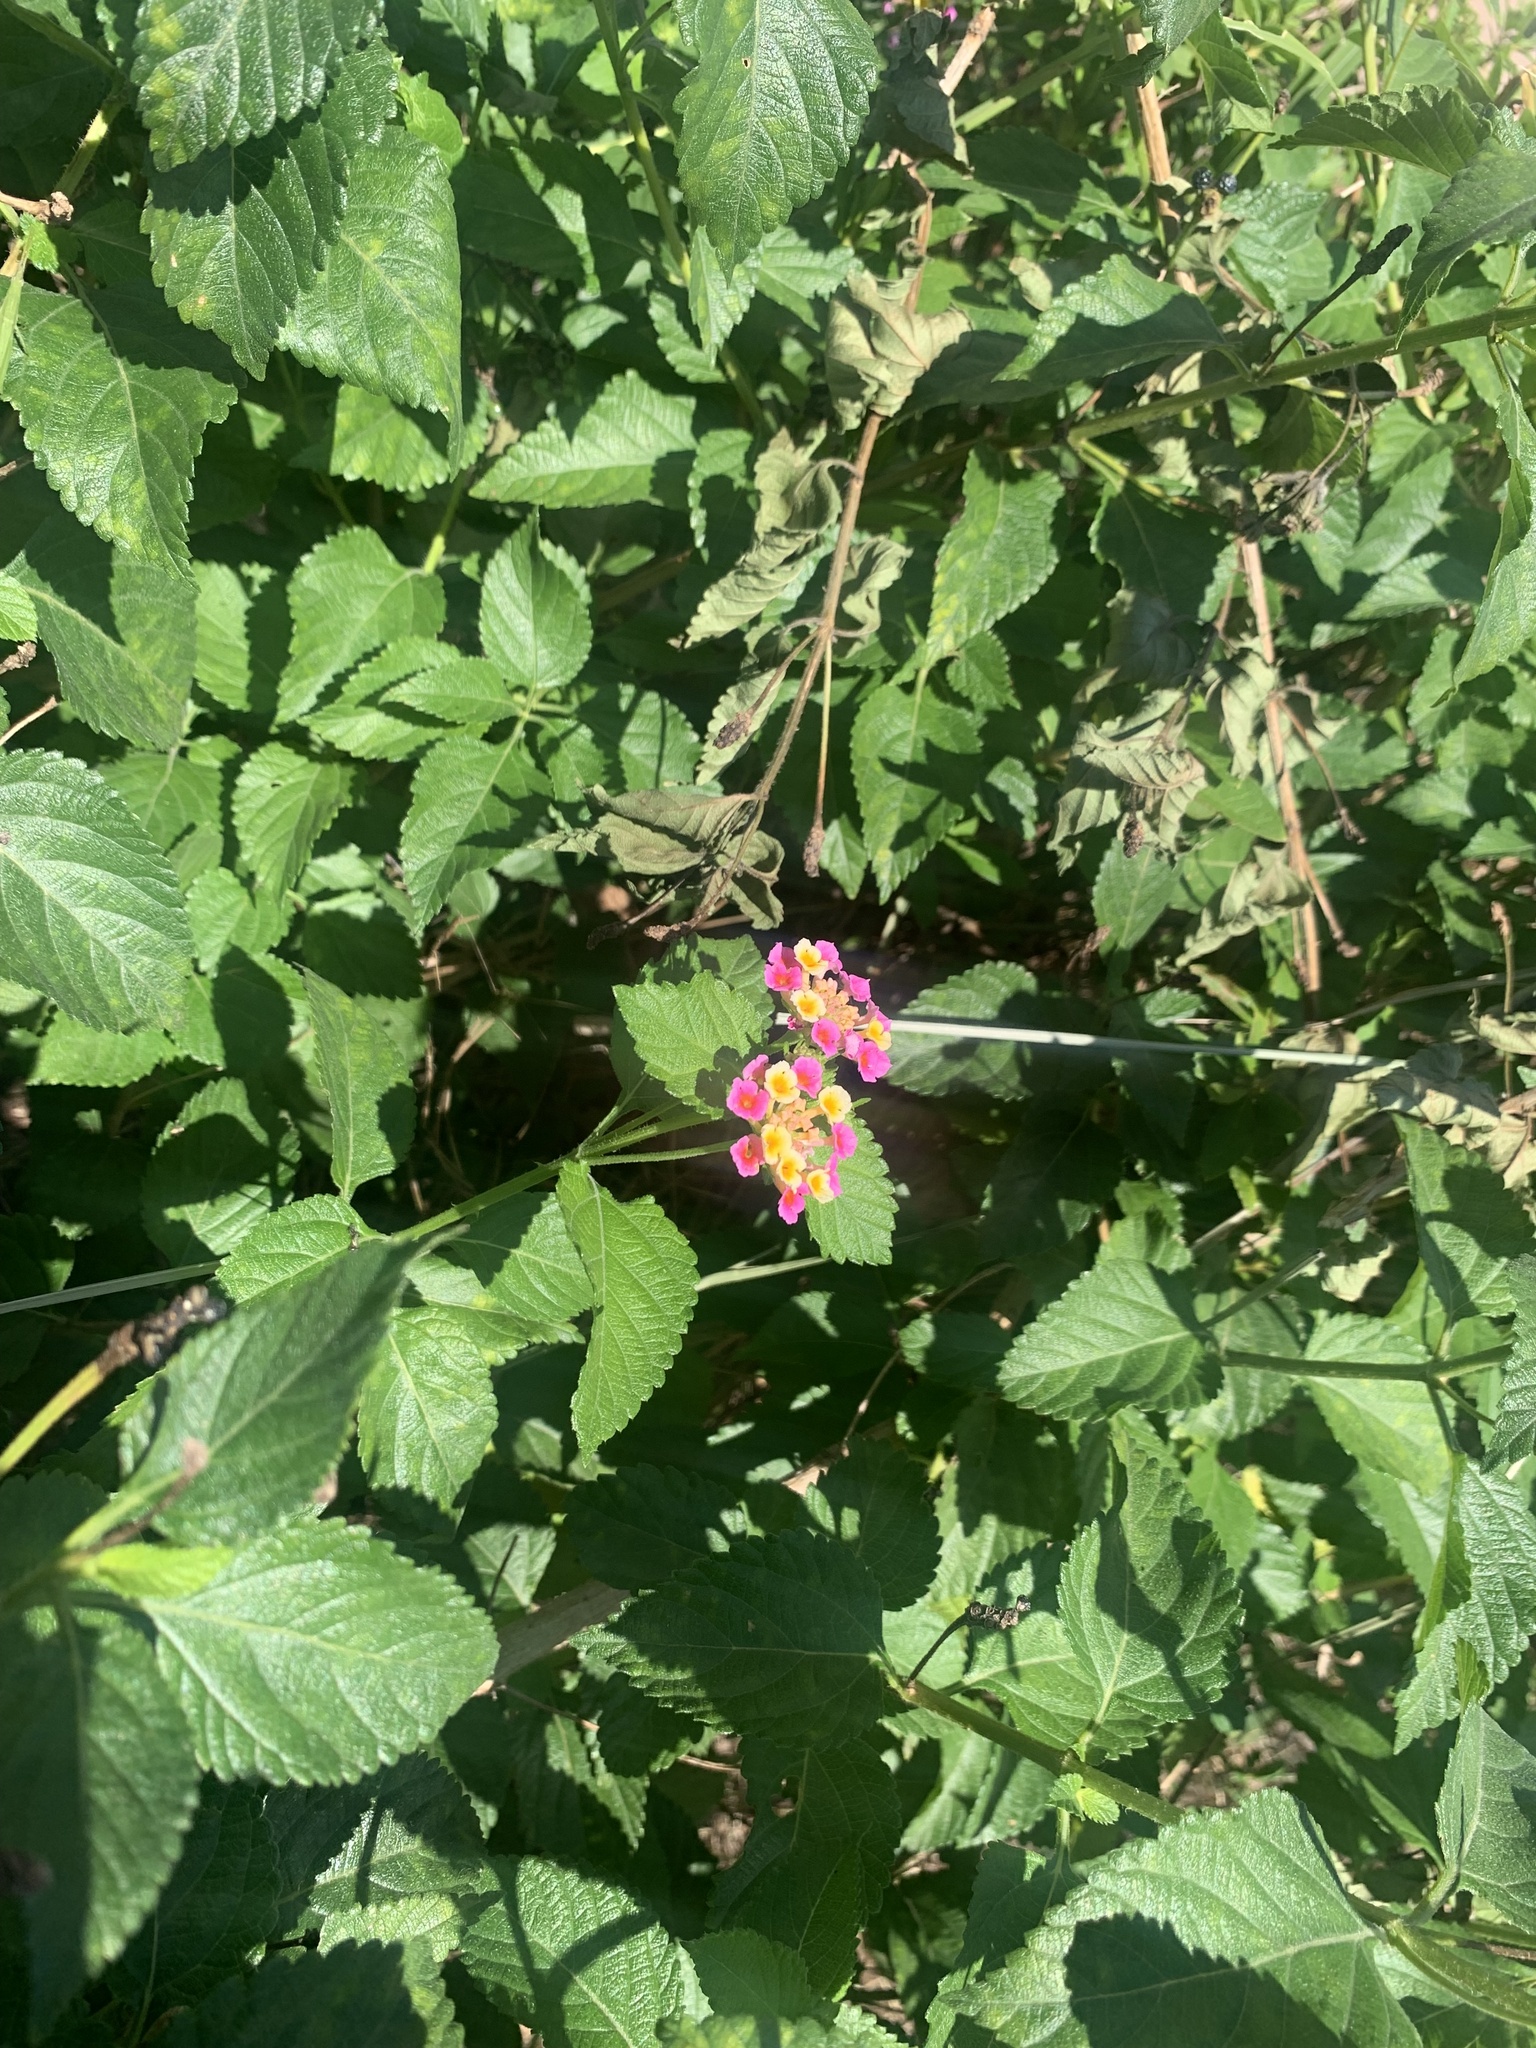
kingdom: Plantae
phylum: Tracheophyta
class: Magnoliopsida
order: Lamiales
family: Verbenaceae
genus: Lantana
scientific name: Lantana camara
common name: Lantana
